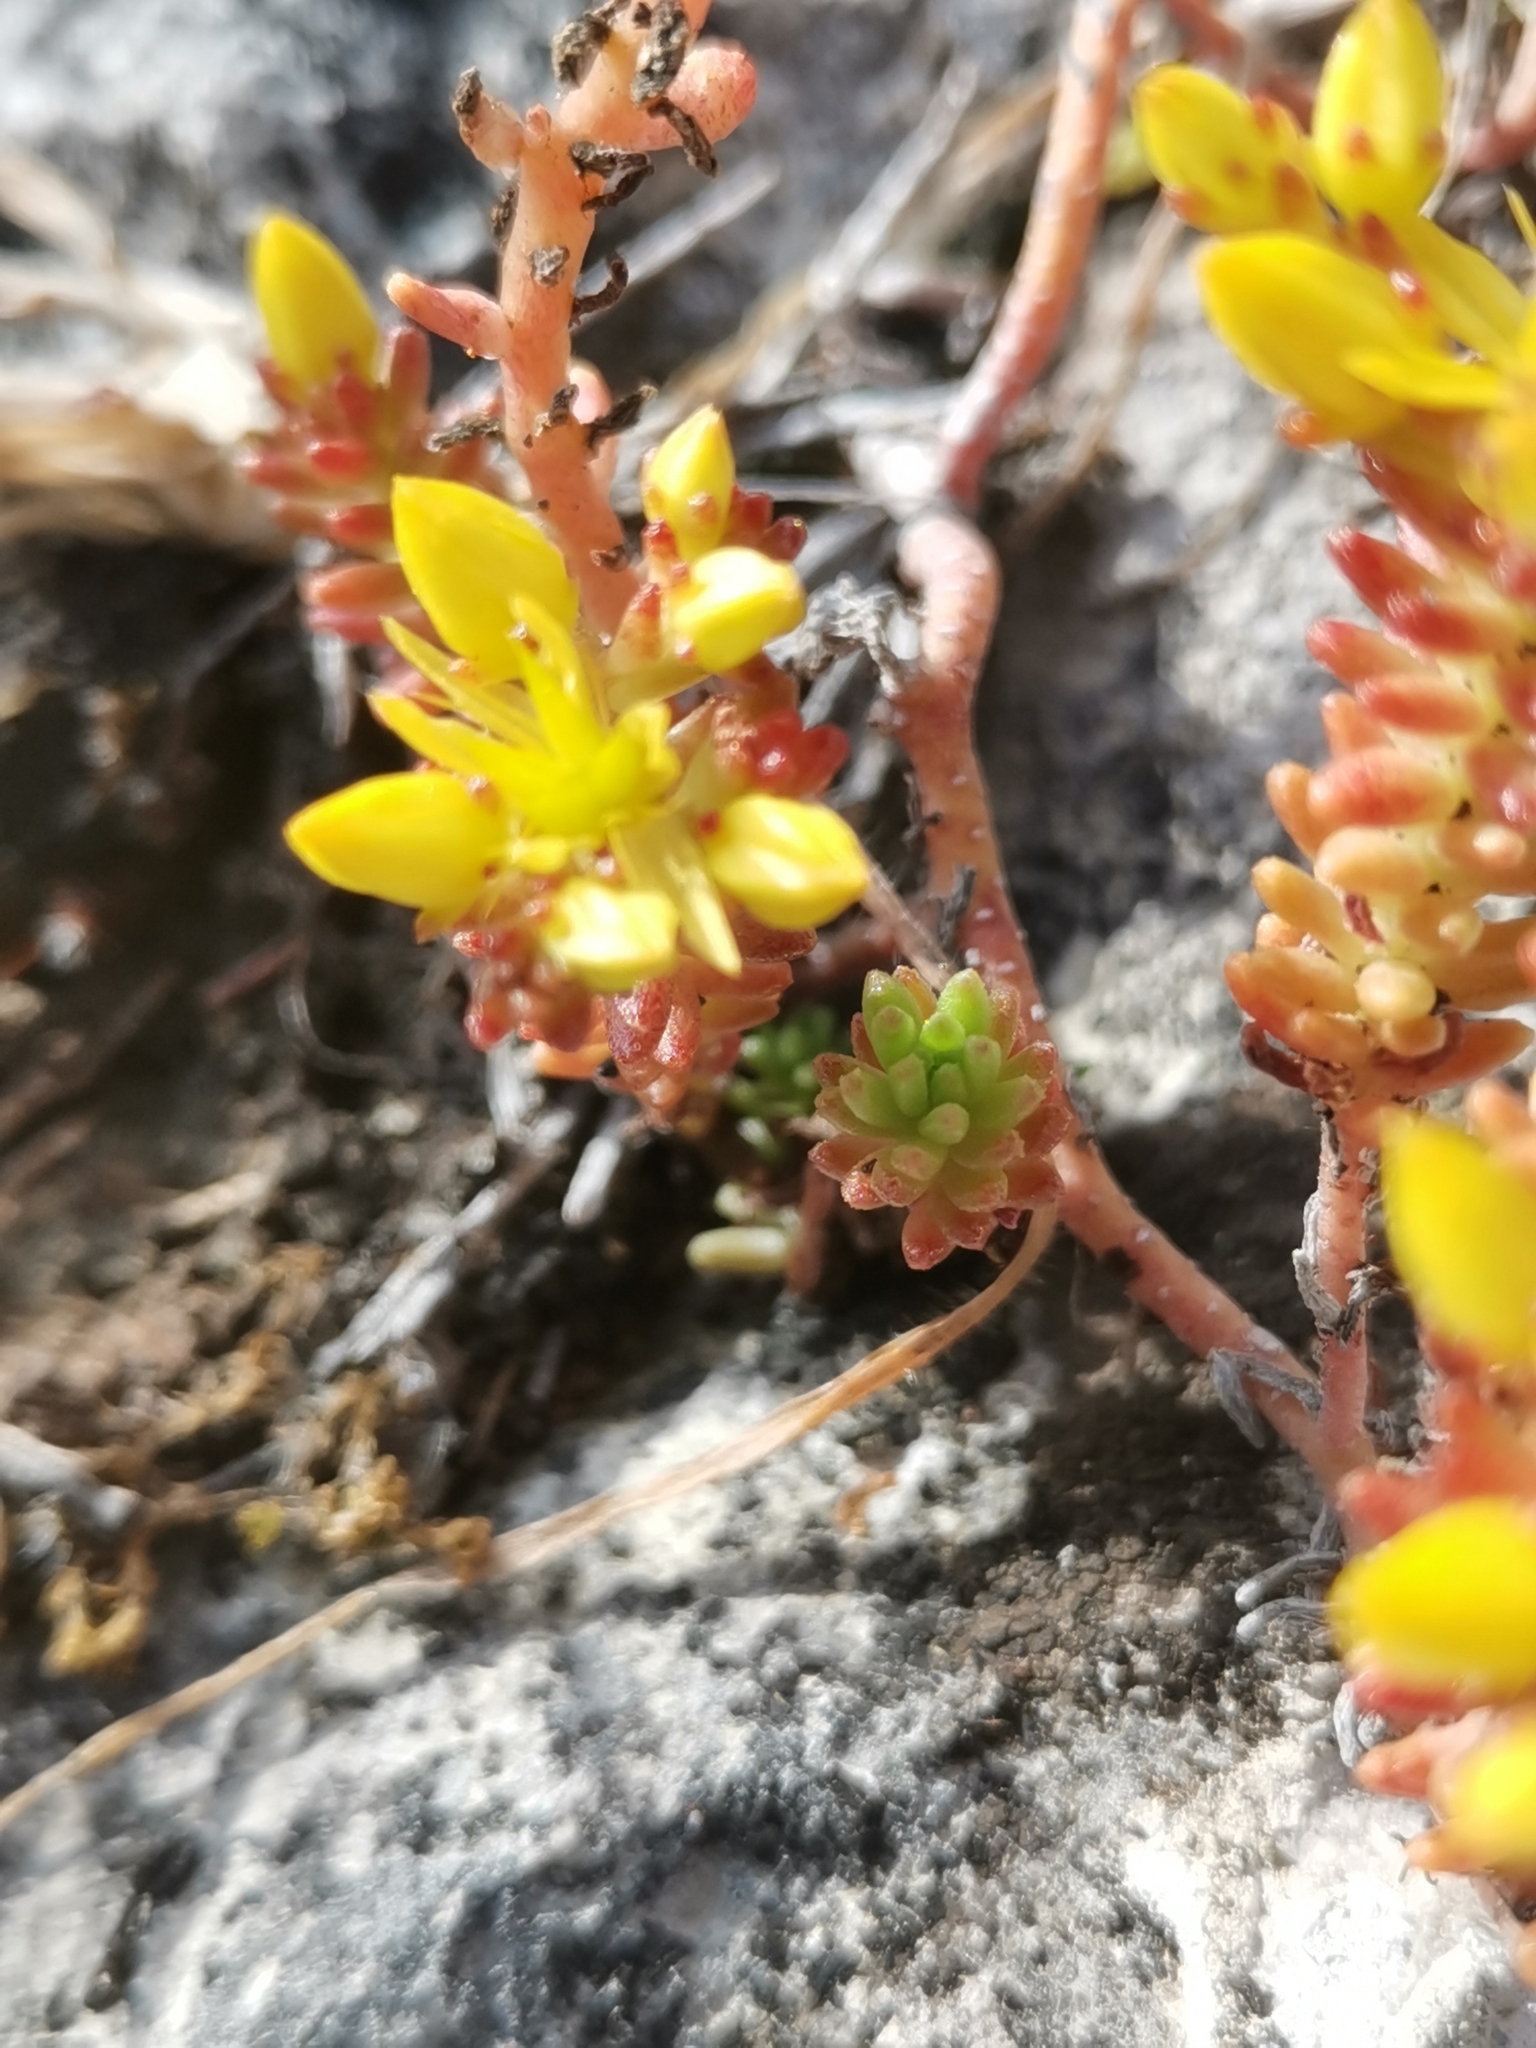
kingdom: Plantae
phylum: Tracheophyta
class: Magnoliopsida
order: Saxifragales
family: Crassulaceae
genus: Sedum
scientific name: Sedum sexangulare
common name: Tasteless stonecrop
